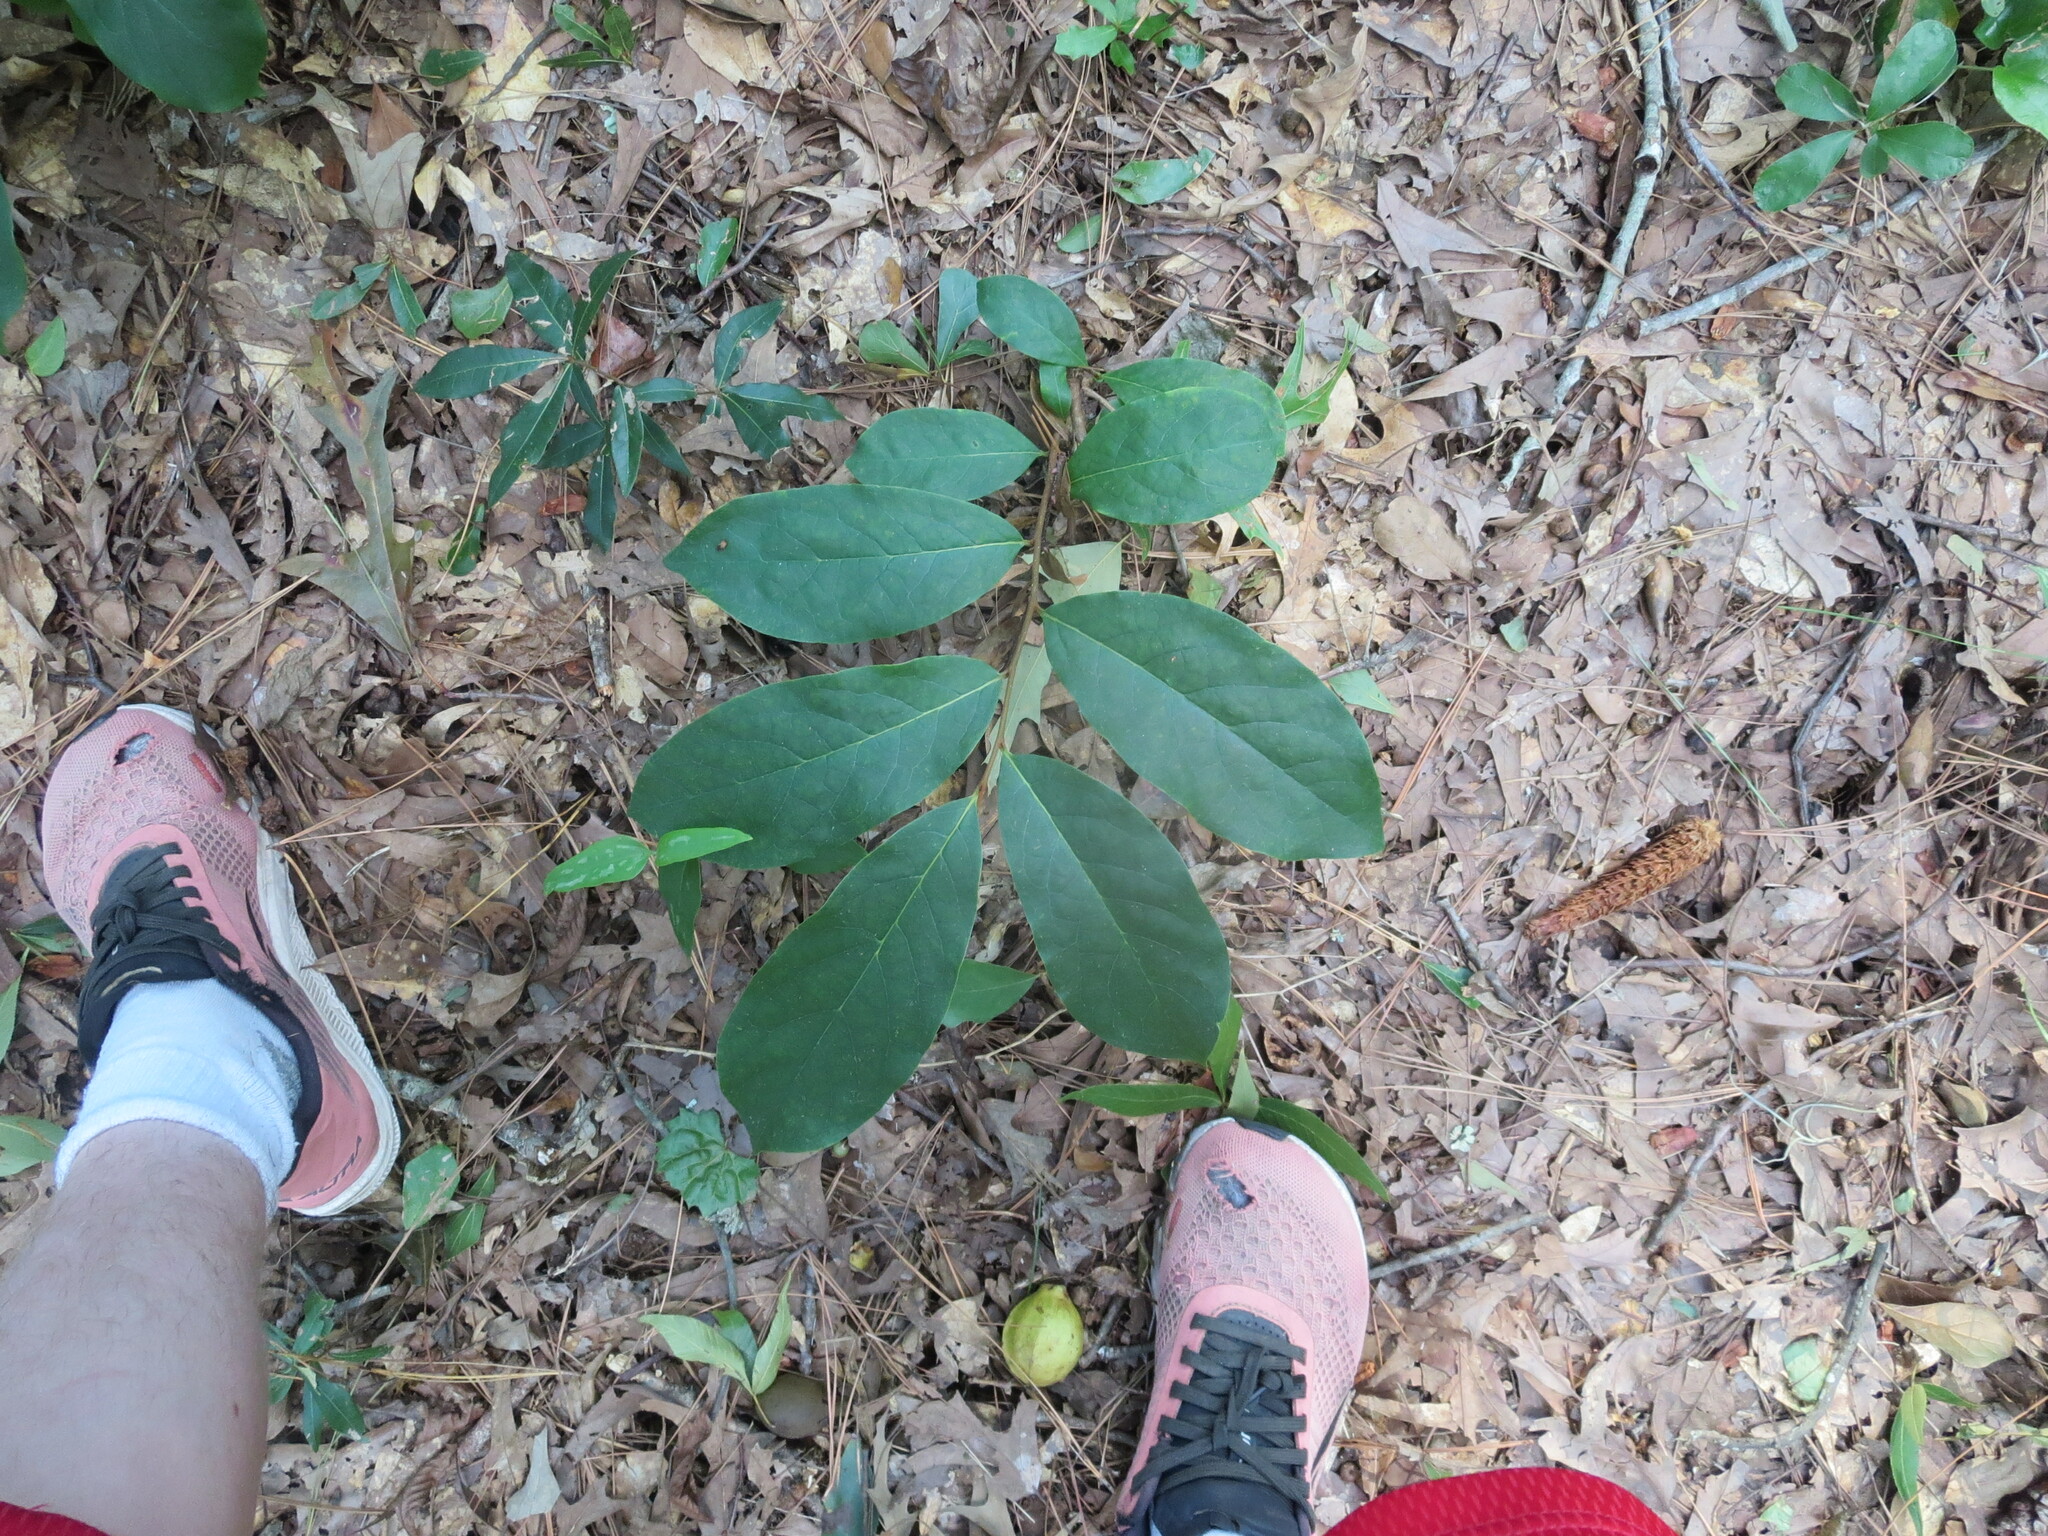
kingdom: Plantae
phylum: Tracheophyta
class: Magnoliopsida
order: Magnoliales
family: Annonaceae
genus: Asimina
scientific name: Asimina parviflora
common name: Dwarf pawpaw
